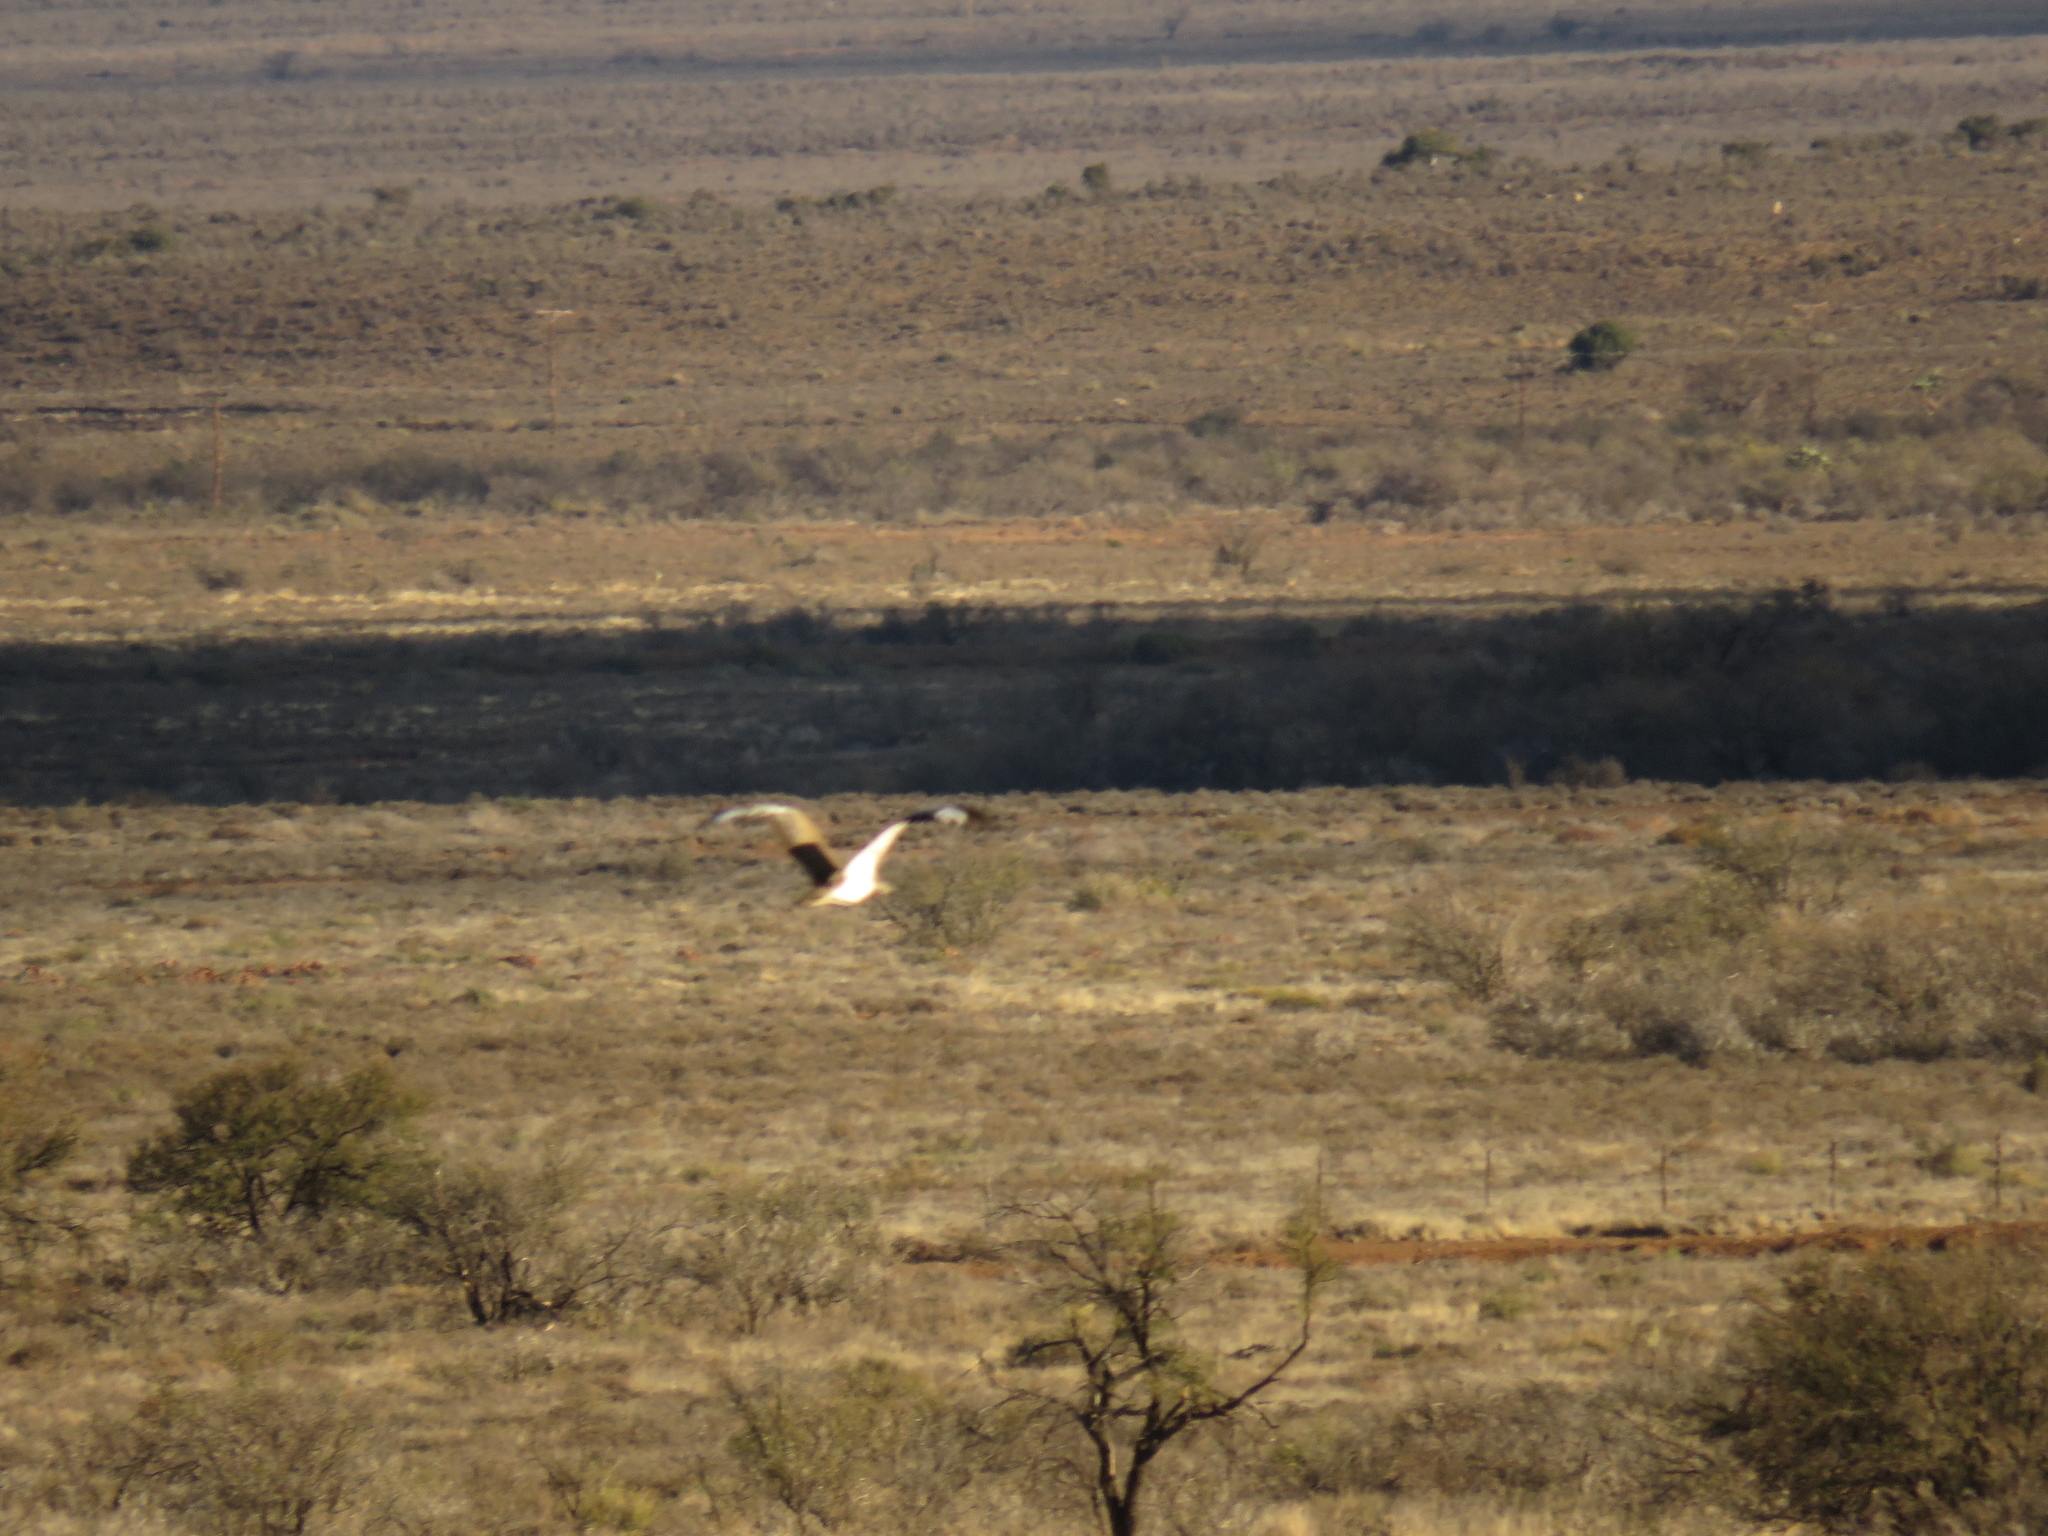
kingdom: Animalia
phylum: Chordata
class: Aves
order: Otidiformes
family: Otididae
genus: Neotis
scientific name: Neotis ludwigii
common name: Ludwig's bustard
